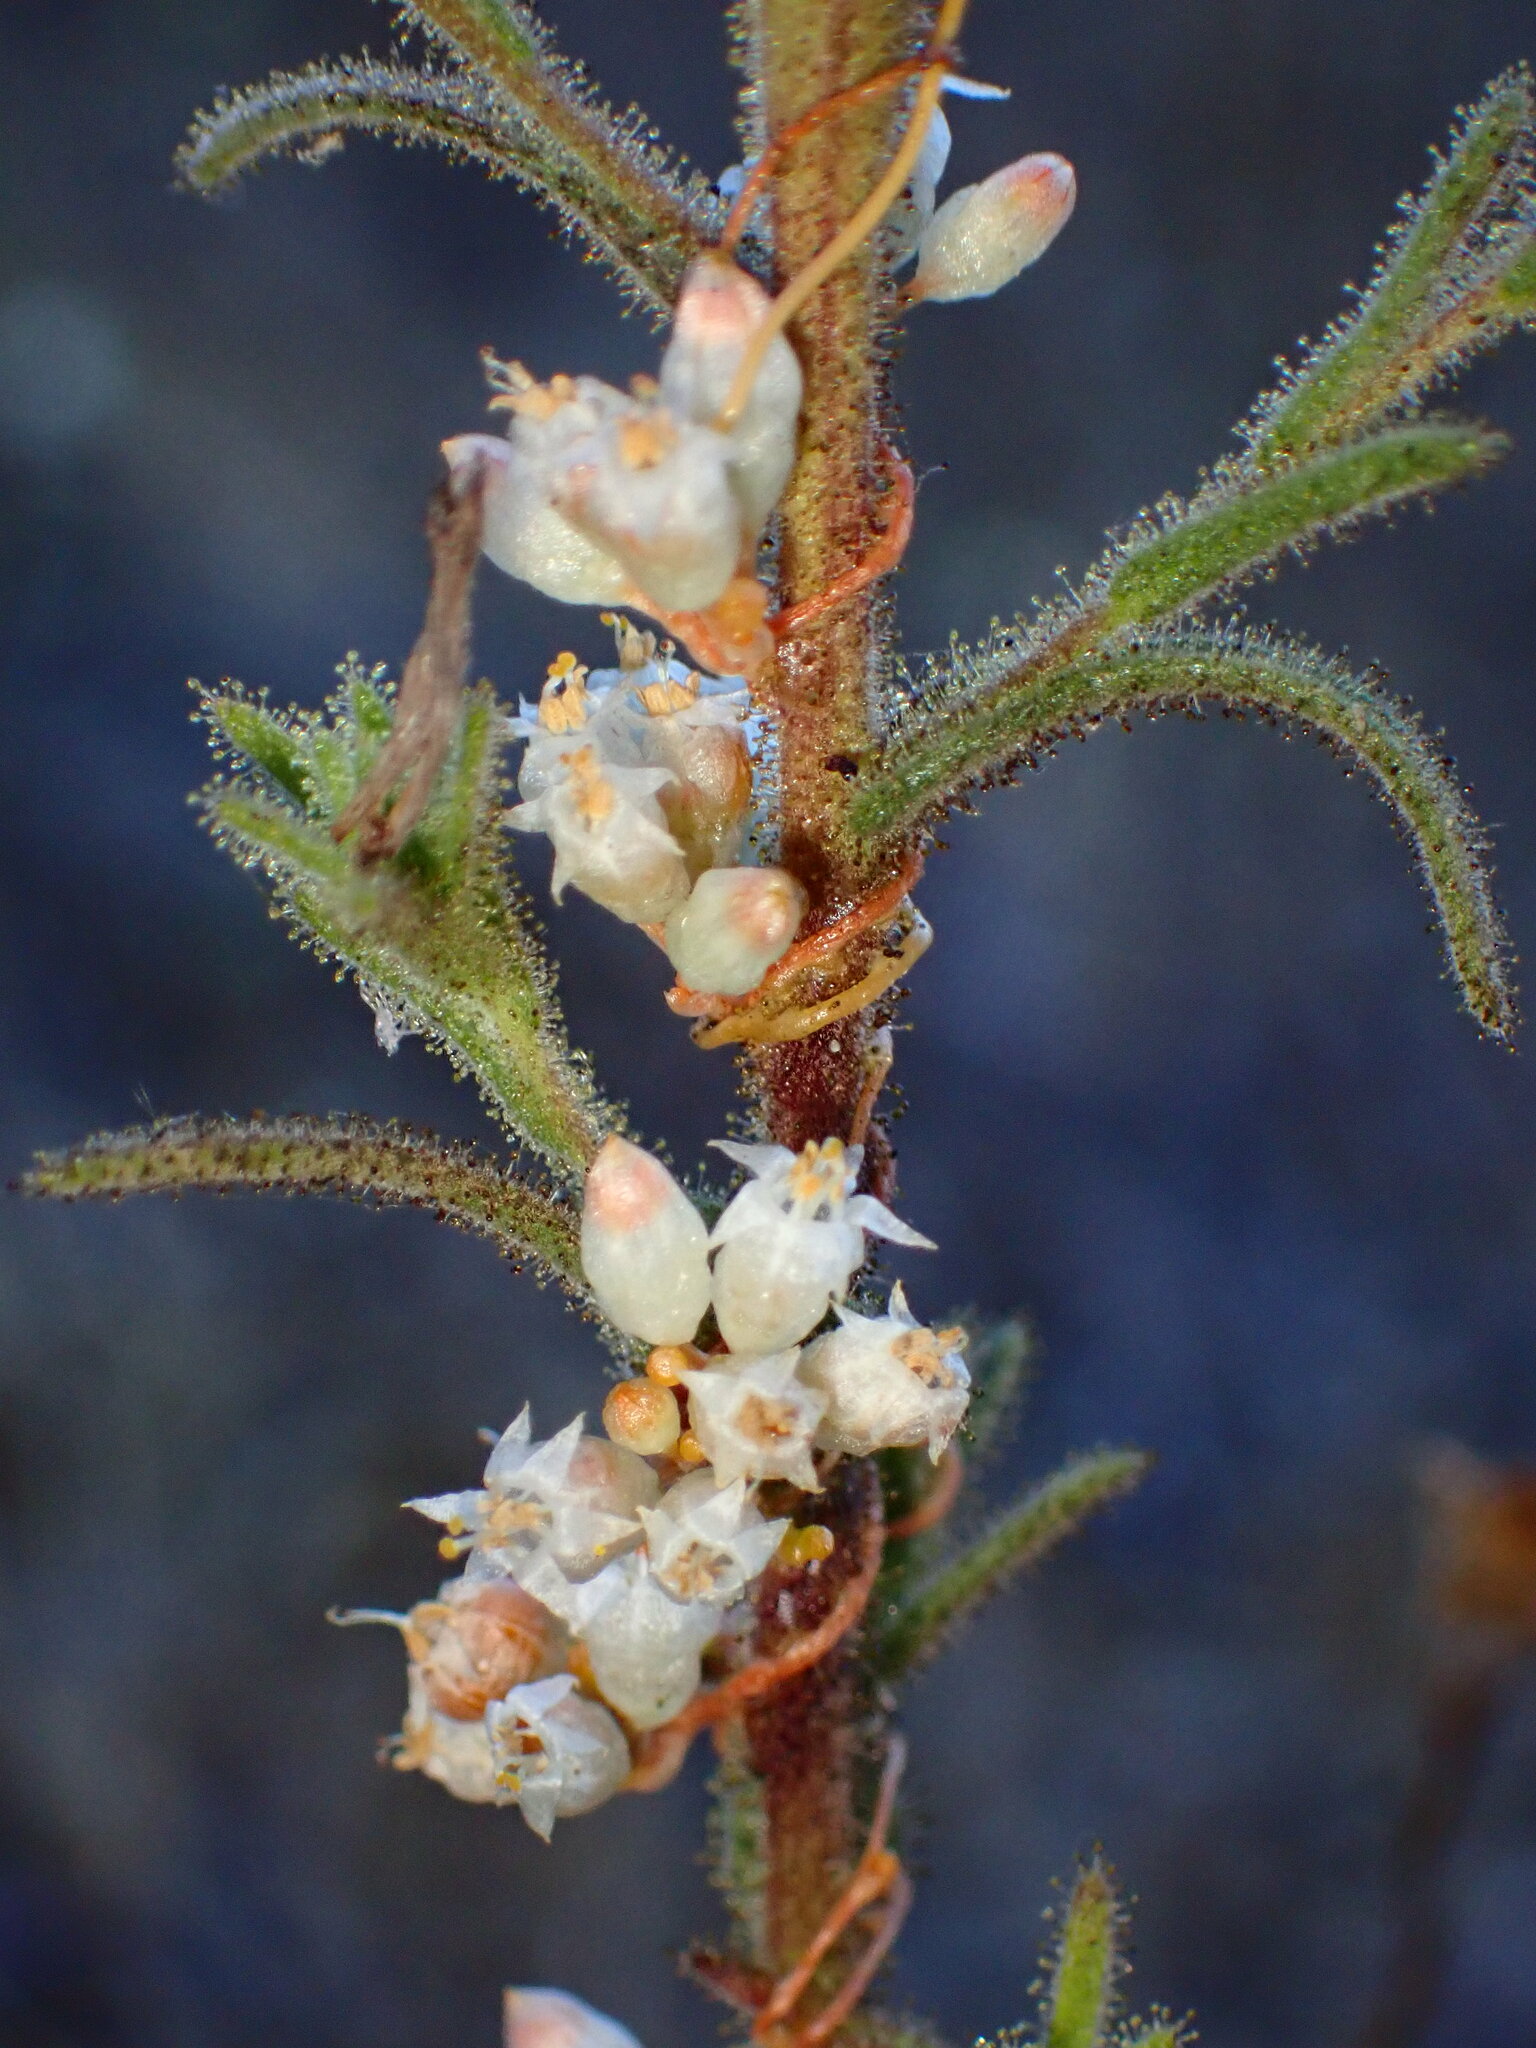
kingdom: Plantae
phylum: Tracheophyta
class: Magnoliopsida
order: Solanales
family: Convolvulaceae
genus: Cuscuta
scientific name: Cuscuta californica
